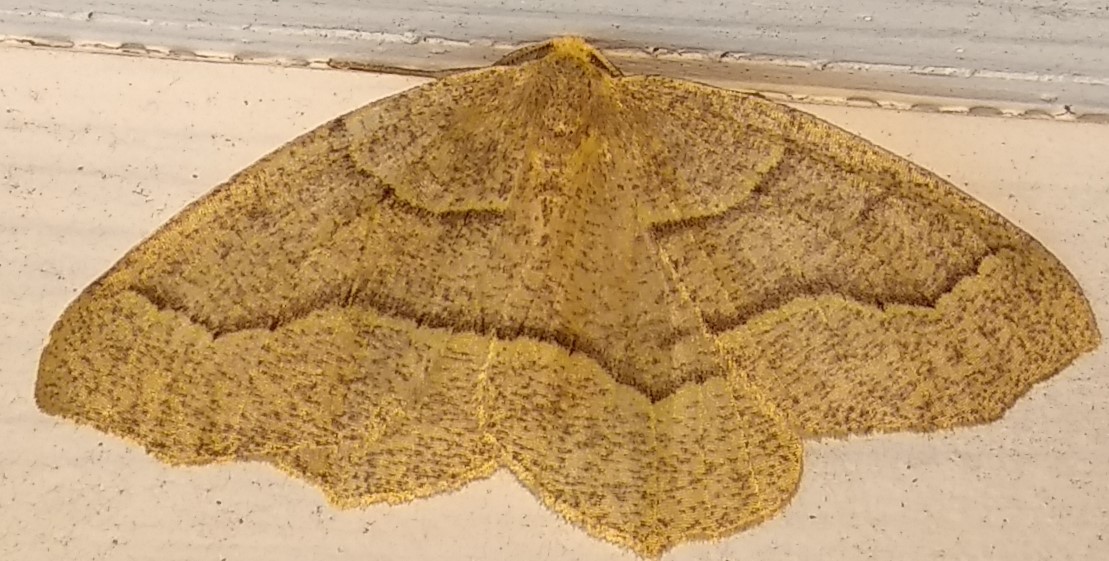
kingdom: Animalia
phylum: Arthropoda
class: Insecta
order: Lepidoptera
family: Geometridae
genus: Lambdina
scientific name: Lambdina fiscellaria
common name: Hemlock looper
